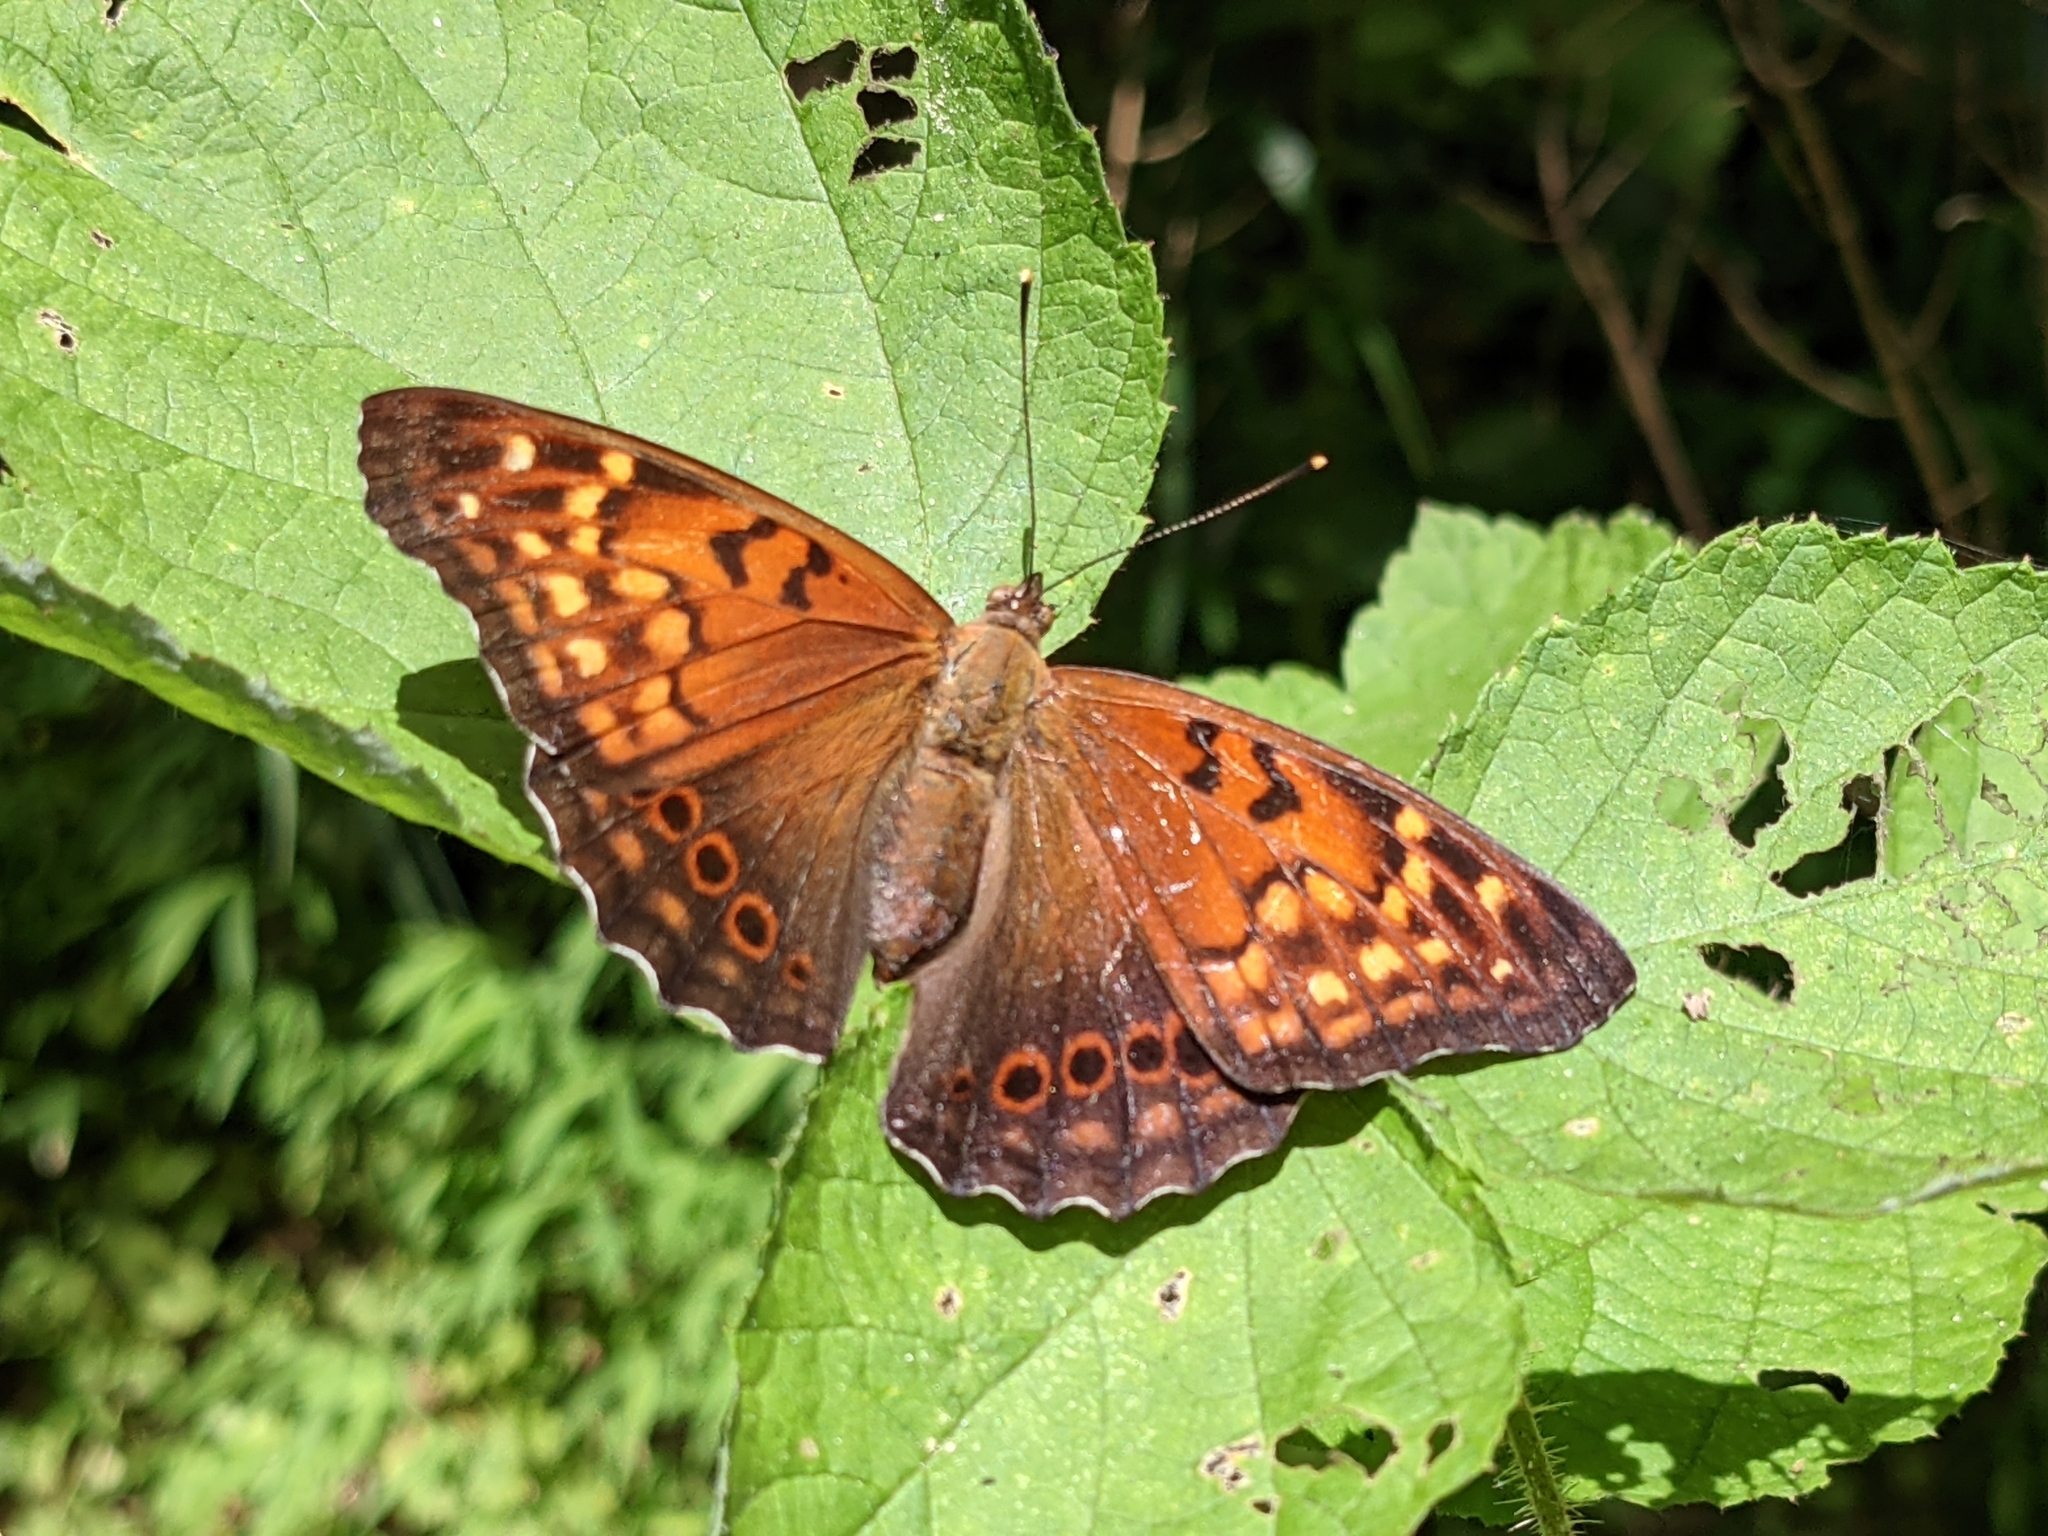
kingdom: Animalia
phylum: Arthropoda
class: Insecta
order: Lepidoptera
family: Nymphalidae
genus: Asterocampa
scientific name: Asterocampa clyton
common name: Tawny emperor
